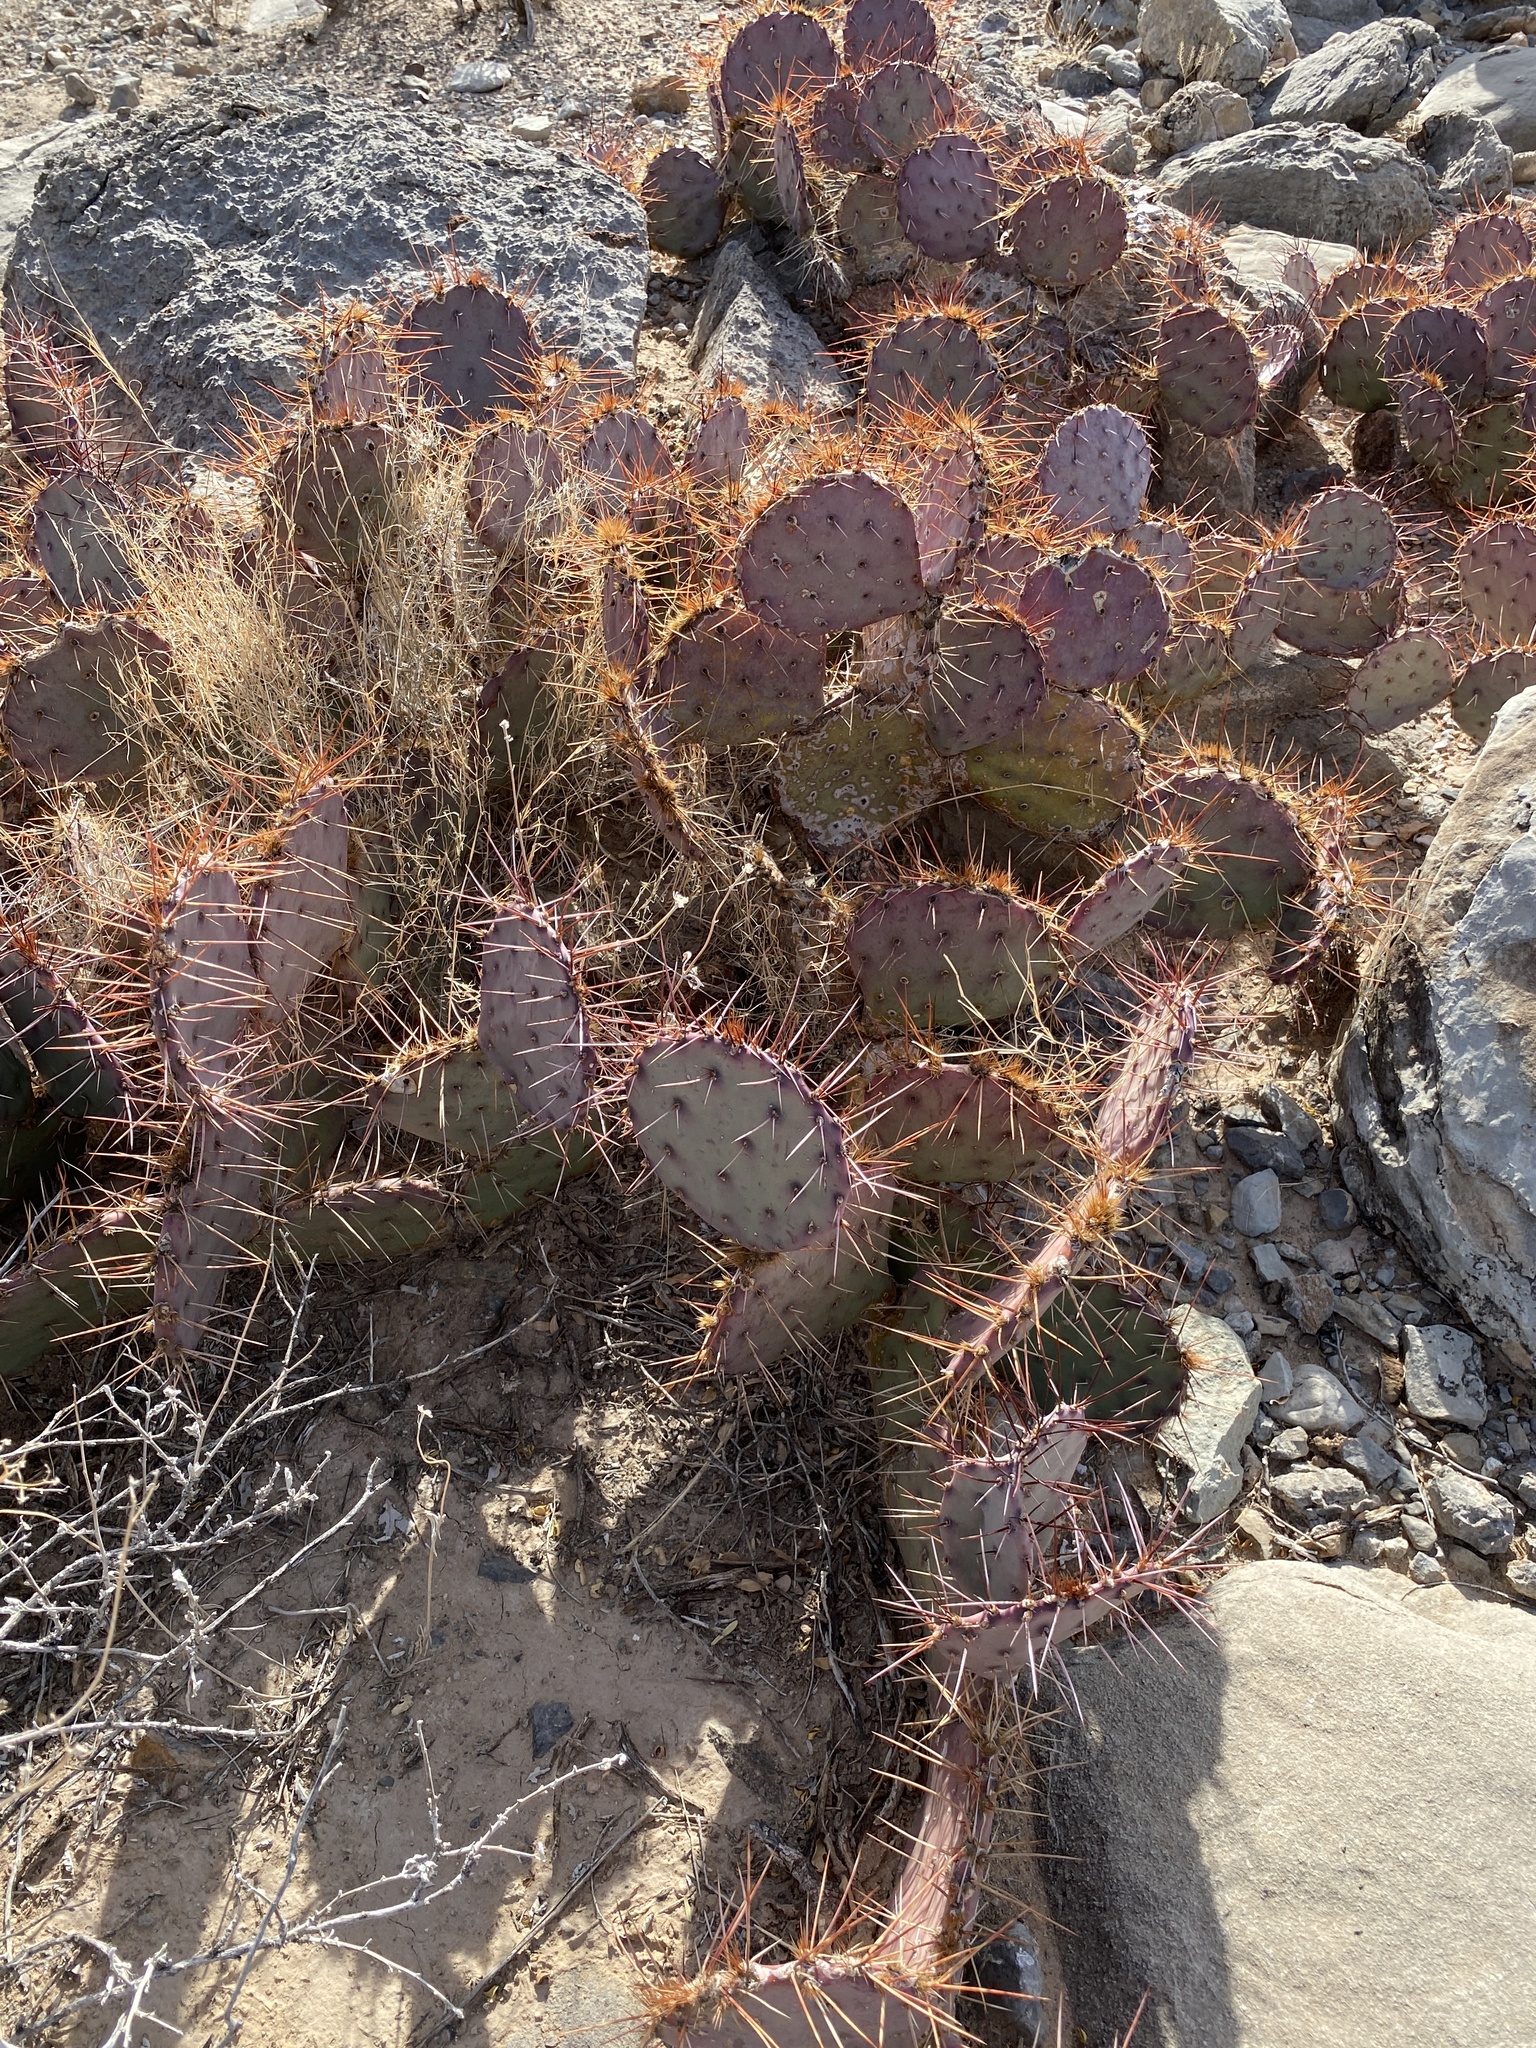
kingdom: Plantae
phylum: Tracheophyta
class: Magnoliopsida
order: Caryophyllales
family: Cactaceae
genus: Opuntia
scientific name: Opuntia macrocentra
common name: Purple prickly-pear
